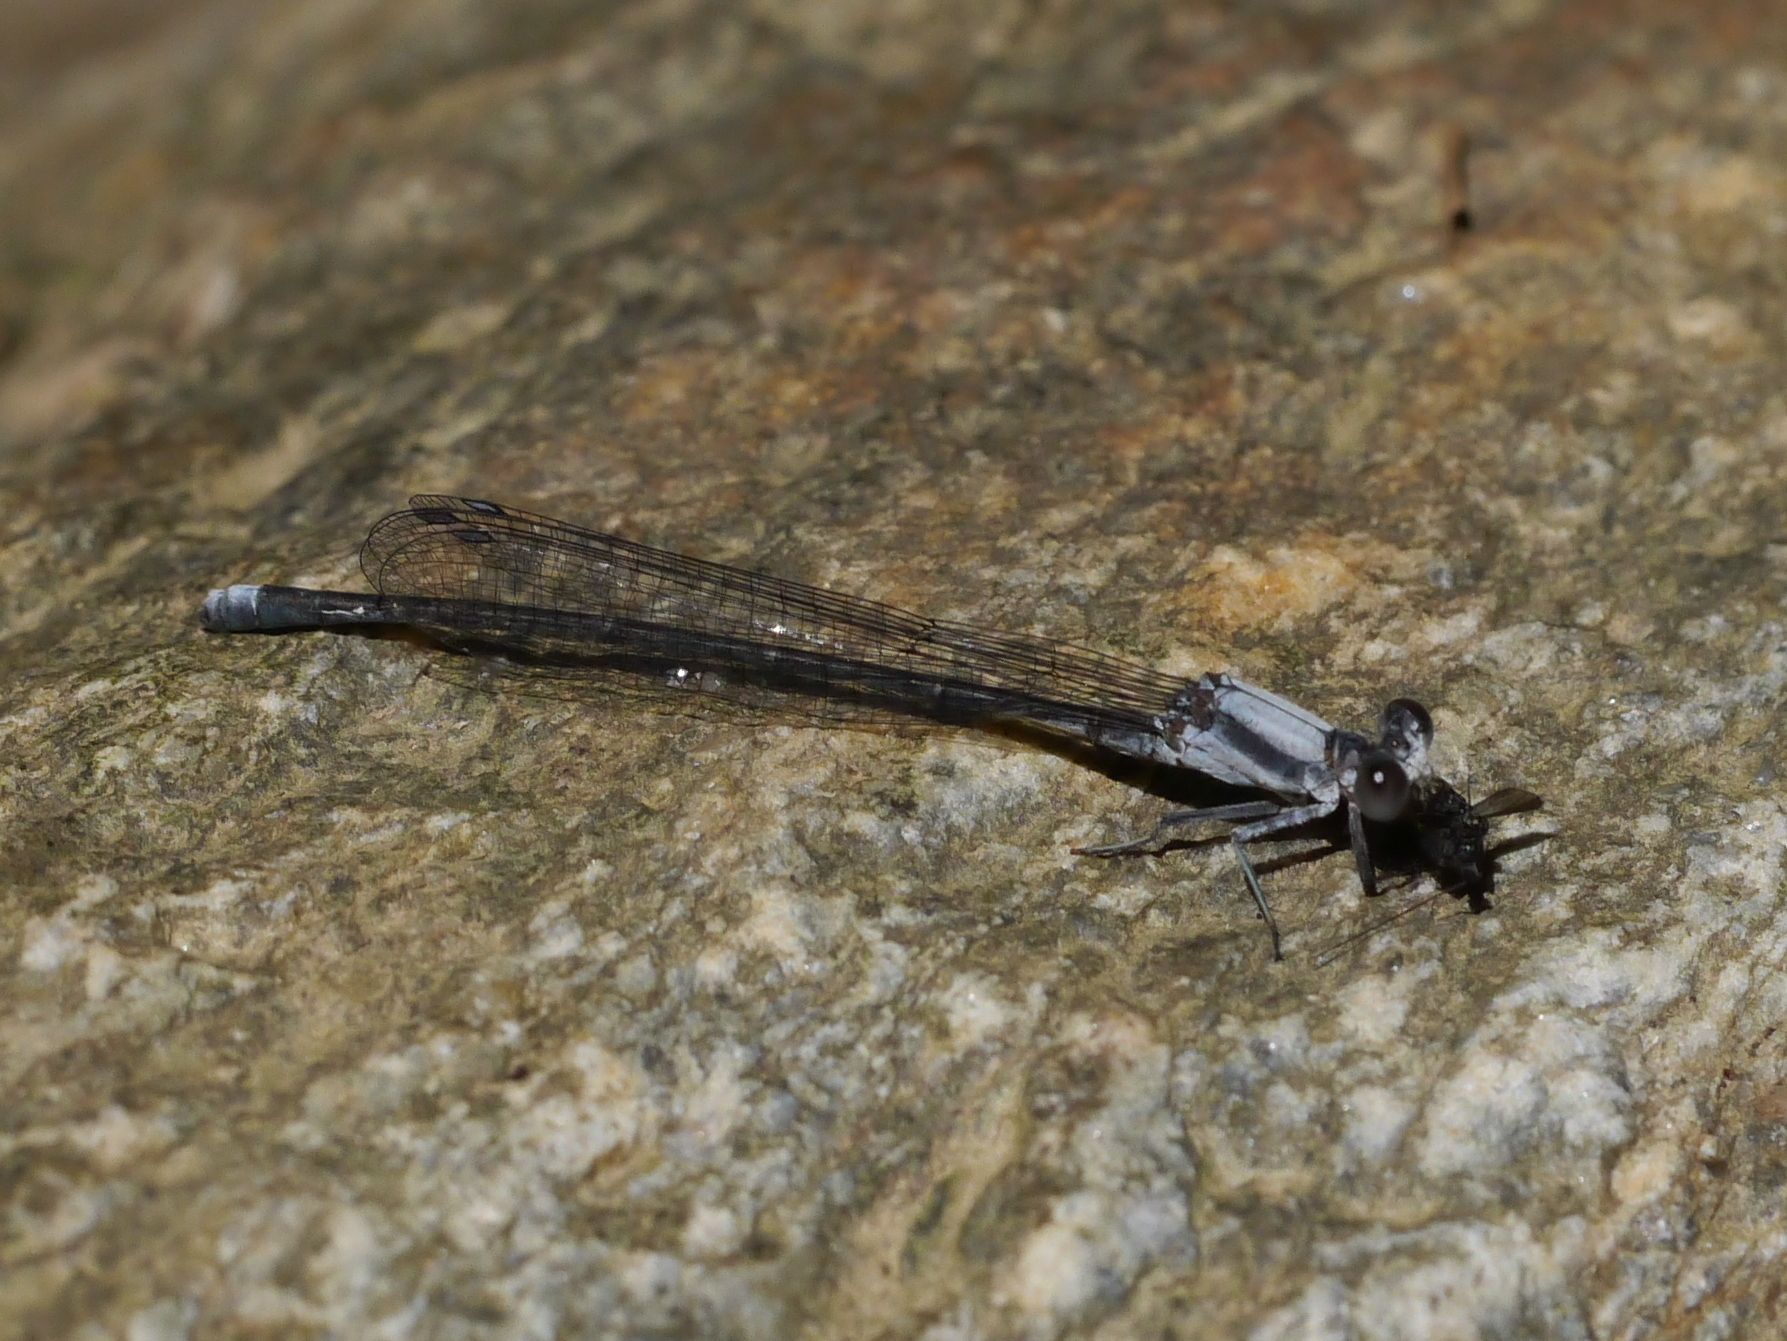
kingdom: Animalia
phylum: Arthropoda
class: Insecta
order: Odonata
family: Coenagrionidae
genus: Argia
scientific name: Argia moesta
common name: Powdered dancer
